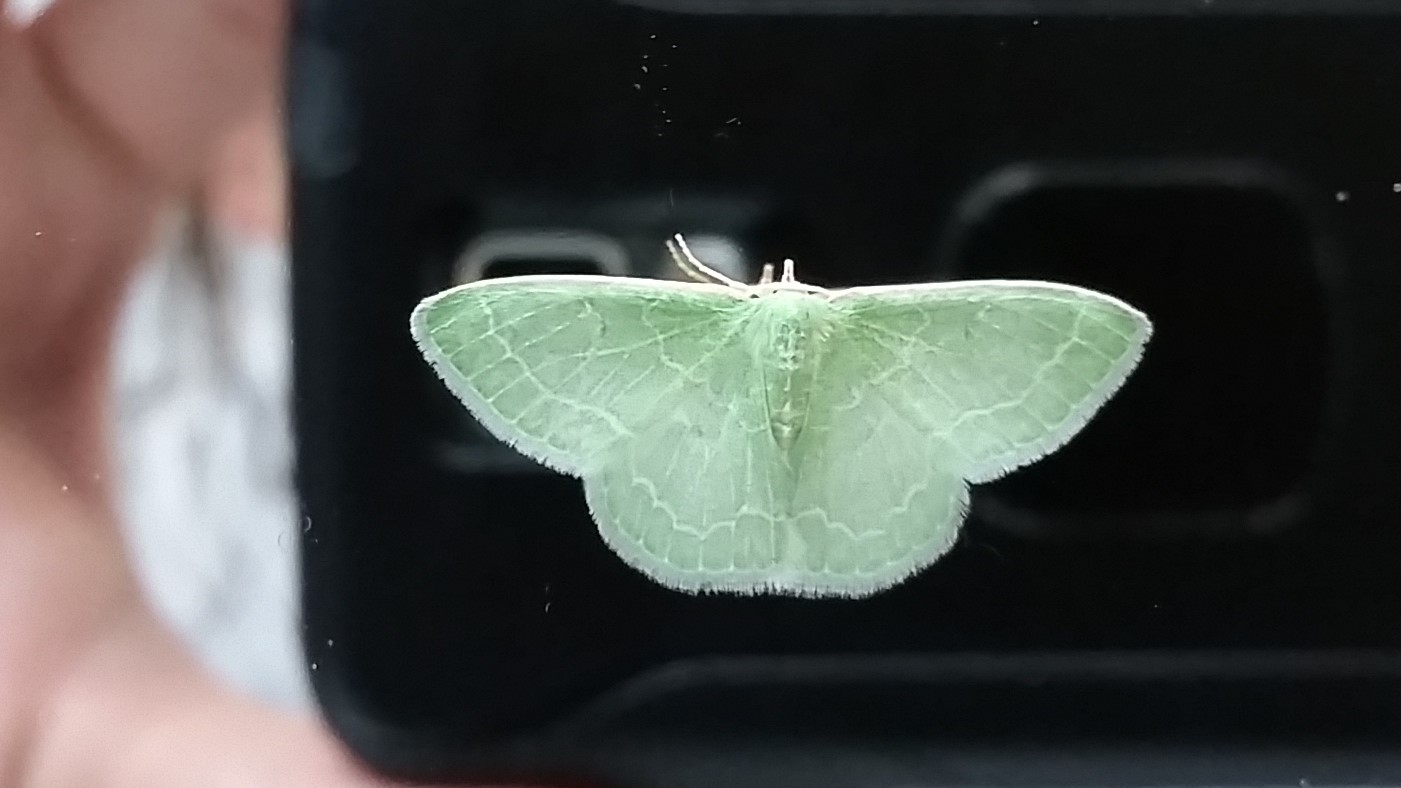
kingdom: Animalia
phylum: Arthropoda
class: Insecta
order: Lepidoptera
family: Geometridae
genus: Synchlora
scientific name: Synchlora aerata
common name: Wavy-lined emerald
